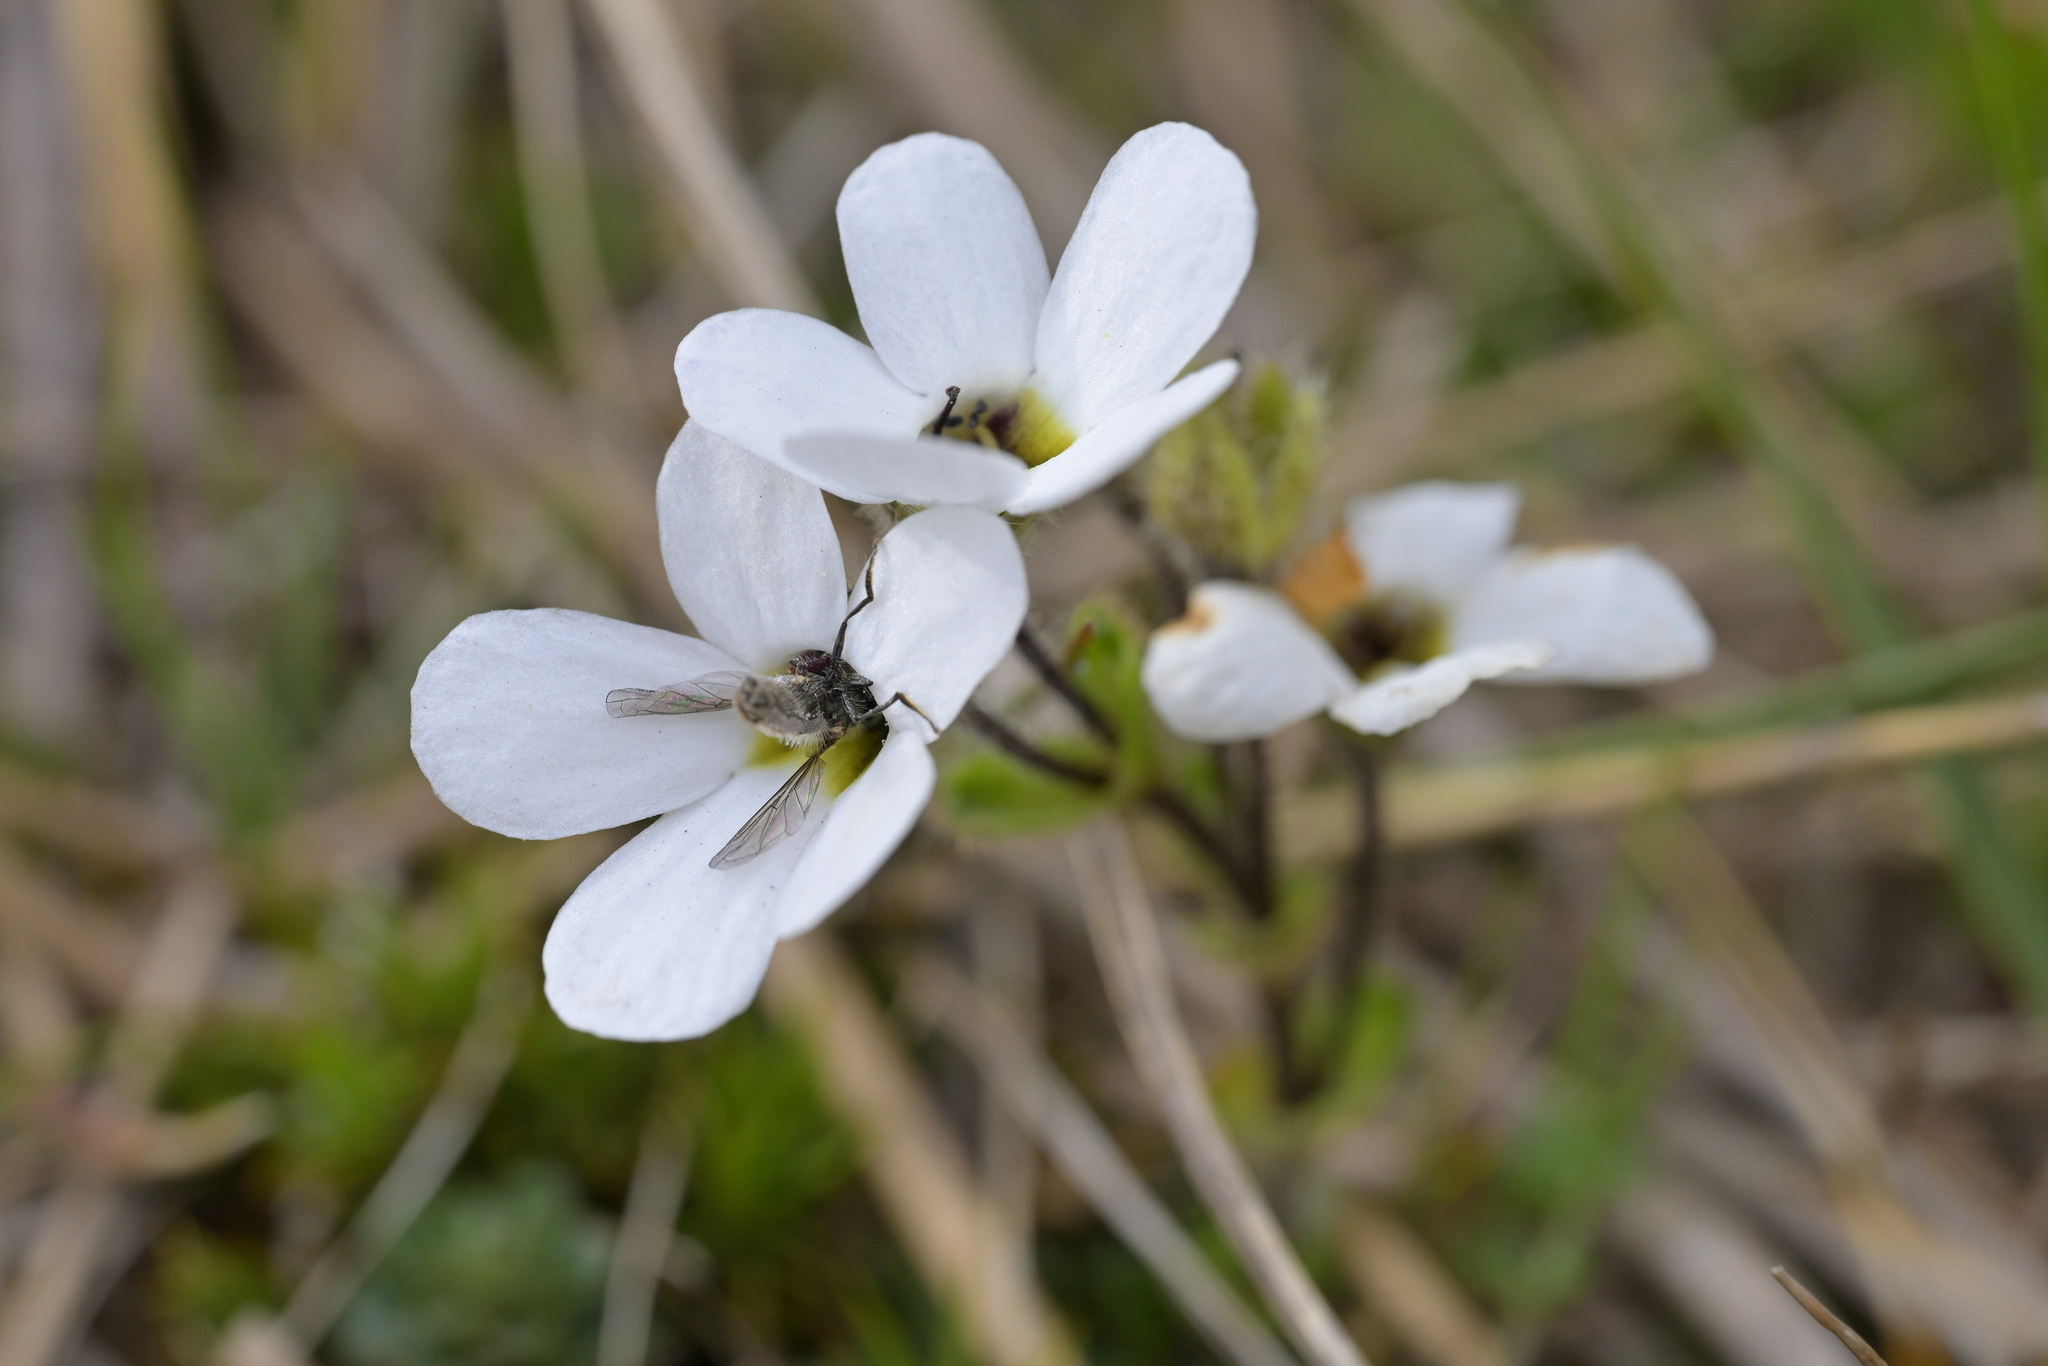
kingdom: Plantae
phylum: Tracheophyta
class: Magnoliopsida
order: Lamiales
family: Plantaginaceae
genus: Ourisia
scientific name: Ourisia glandulosa
